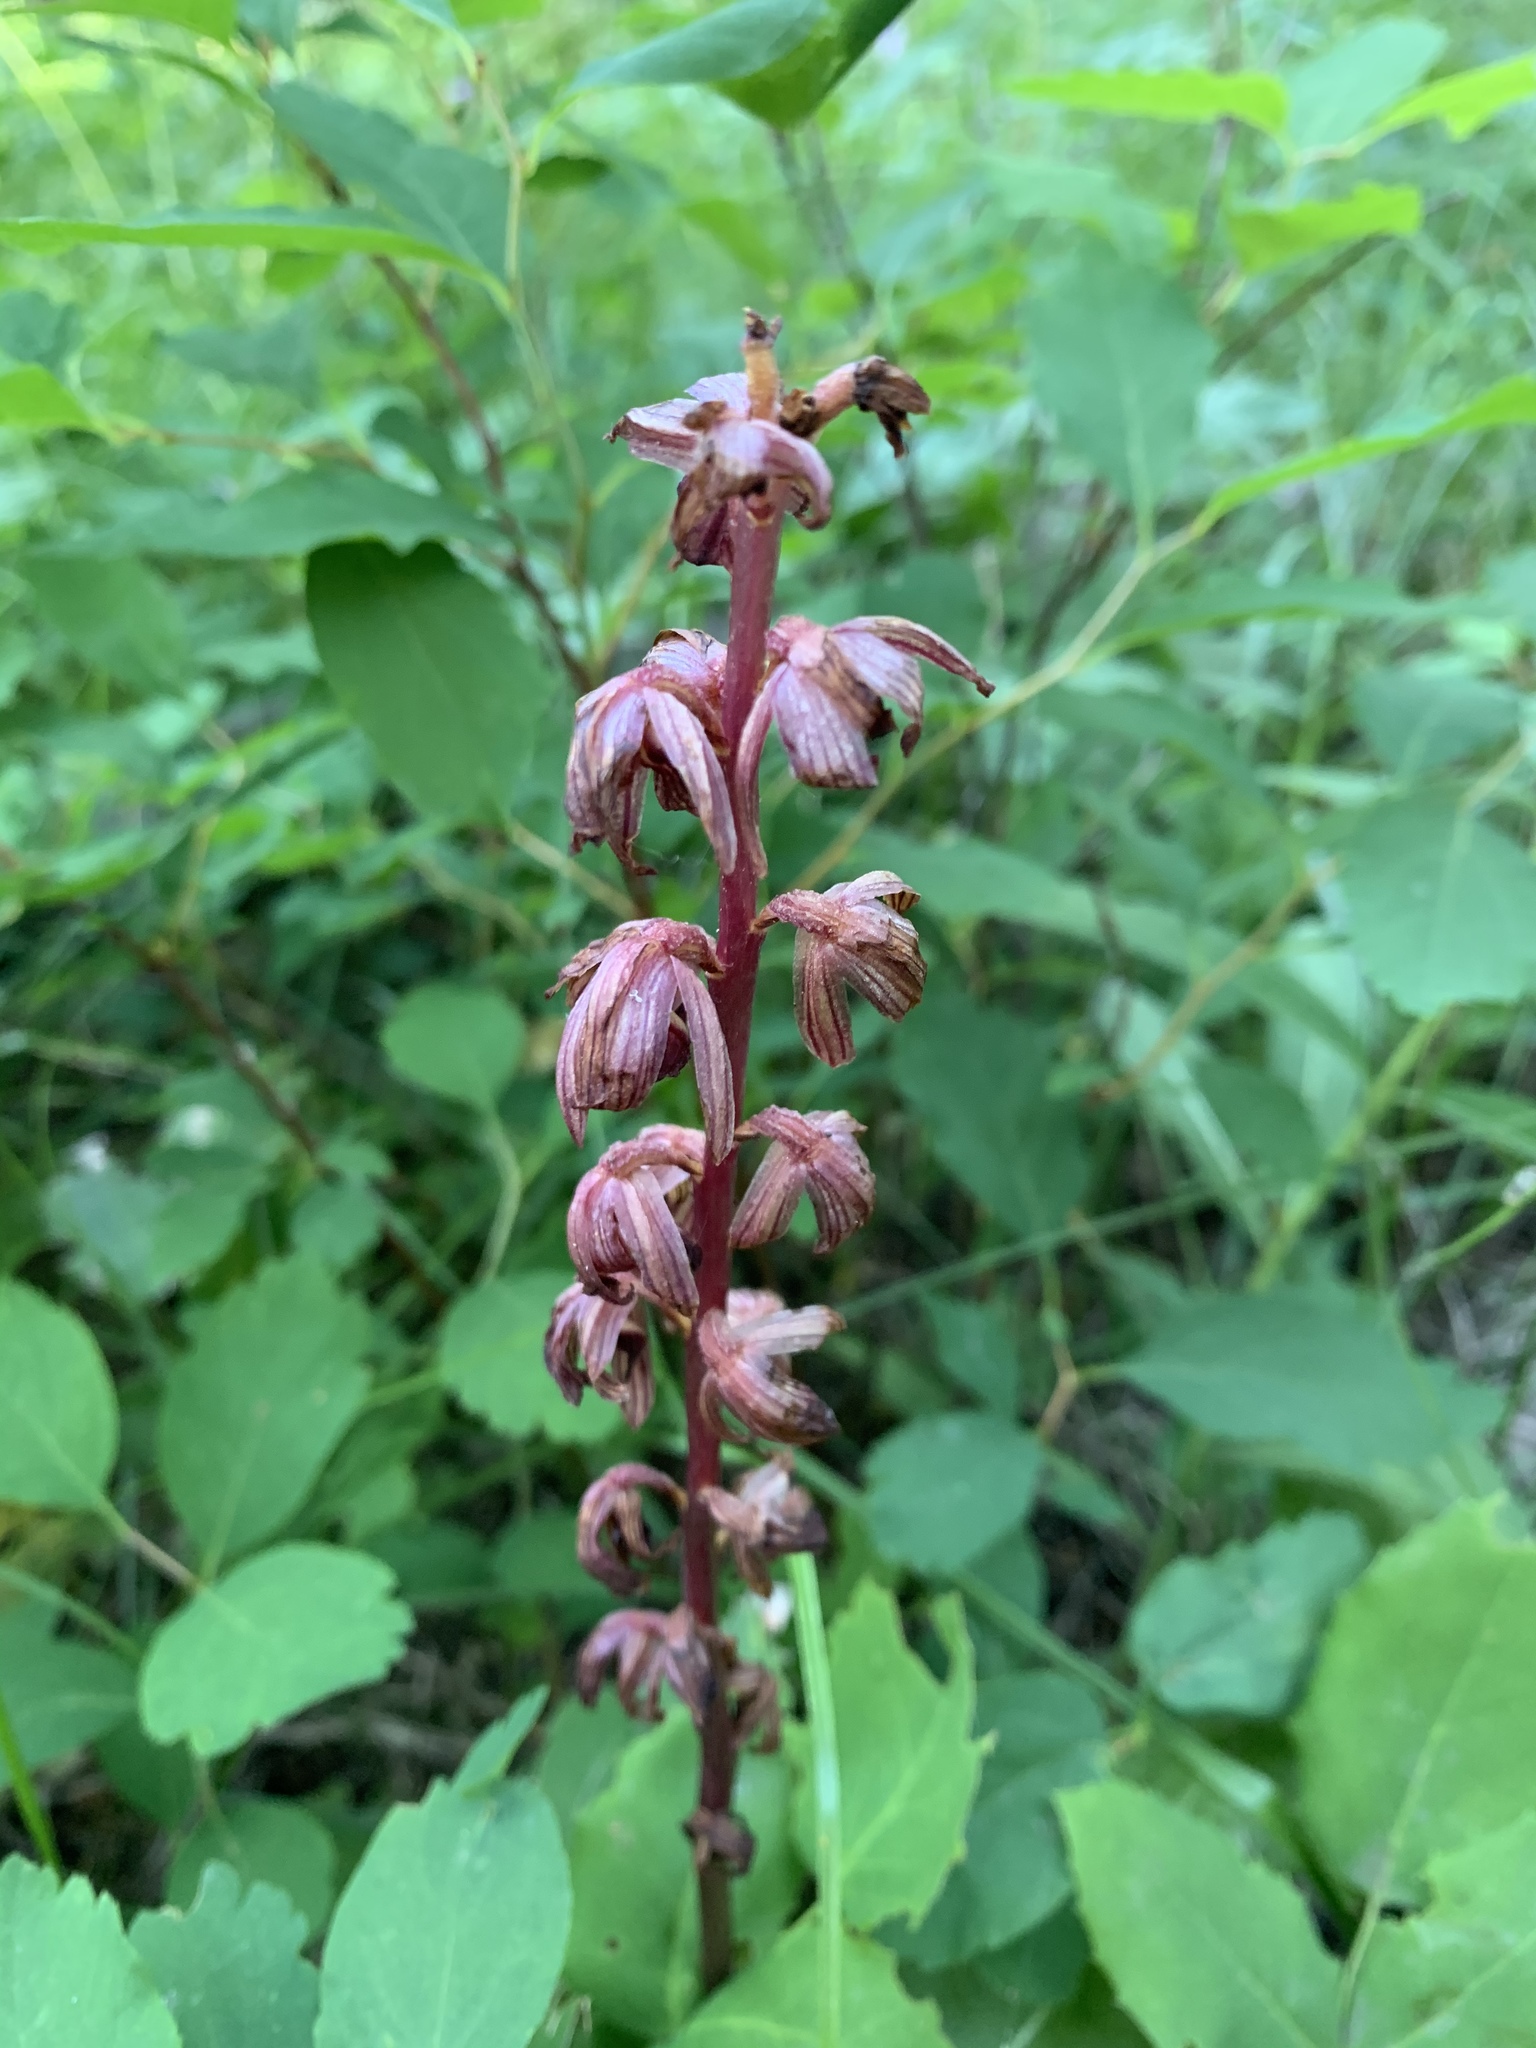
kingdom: Plantae
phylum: Tracheophyta
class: Liliopsida
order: Asparagales
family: Orchidaceae
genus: Corallorhiza
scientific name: Corallorhiza striata
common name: Hooded coralroot
